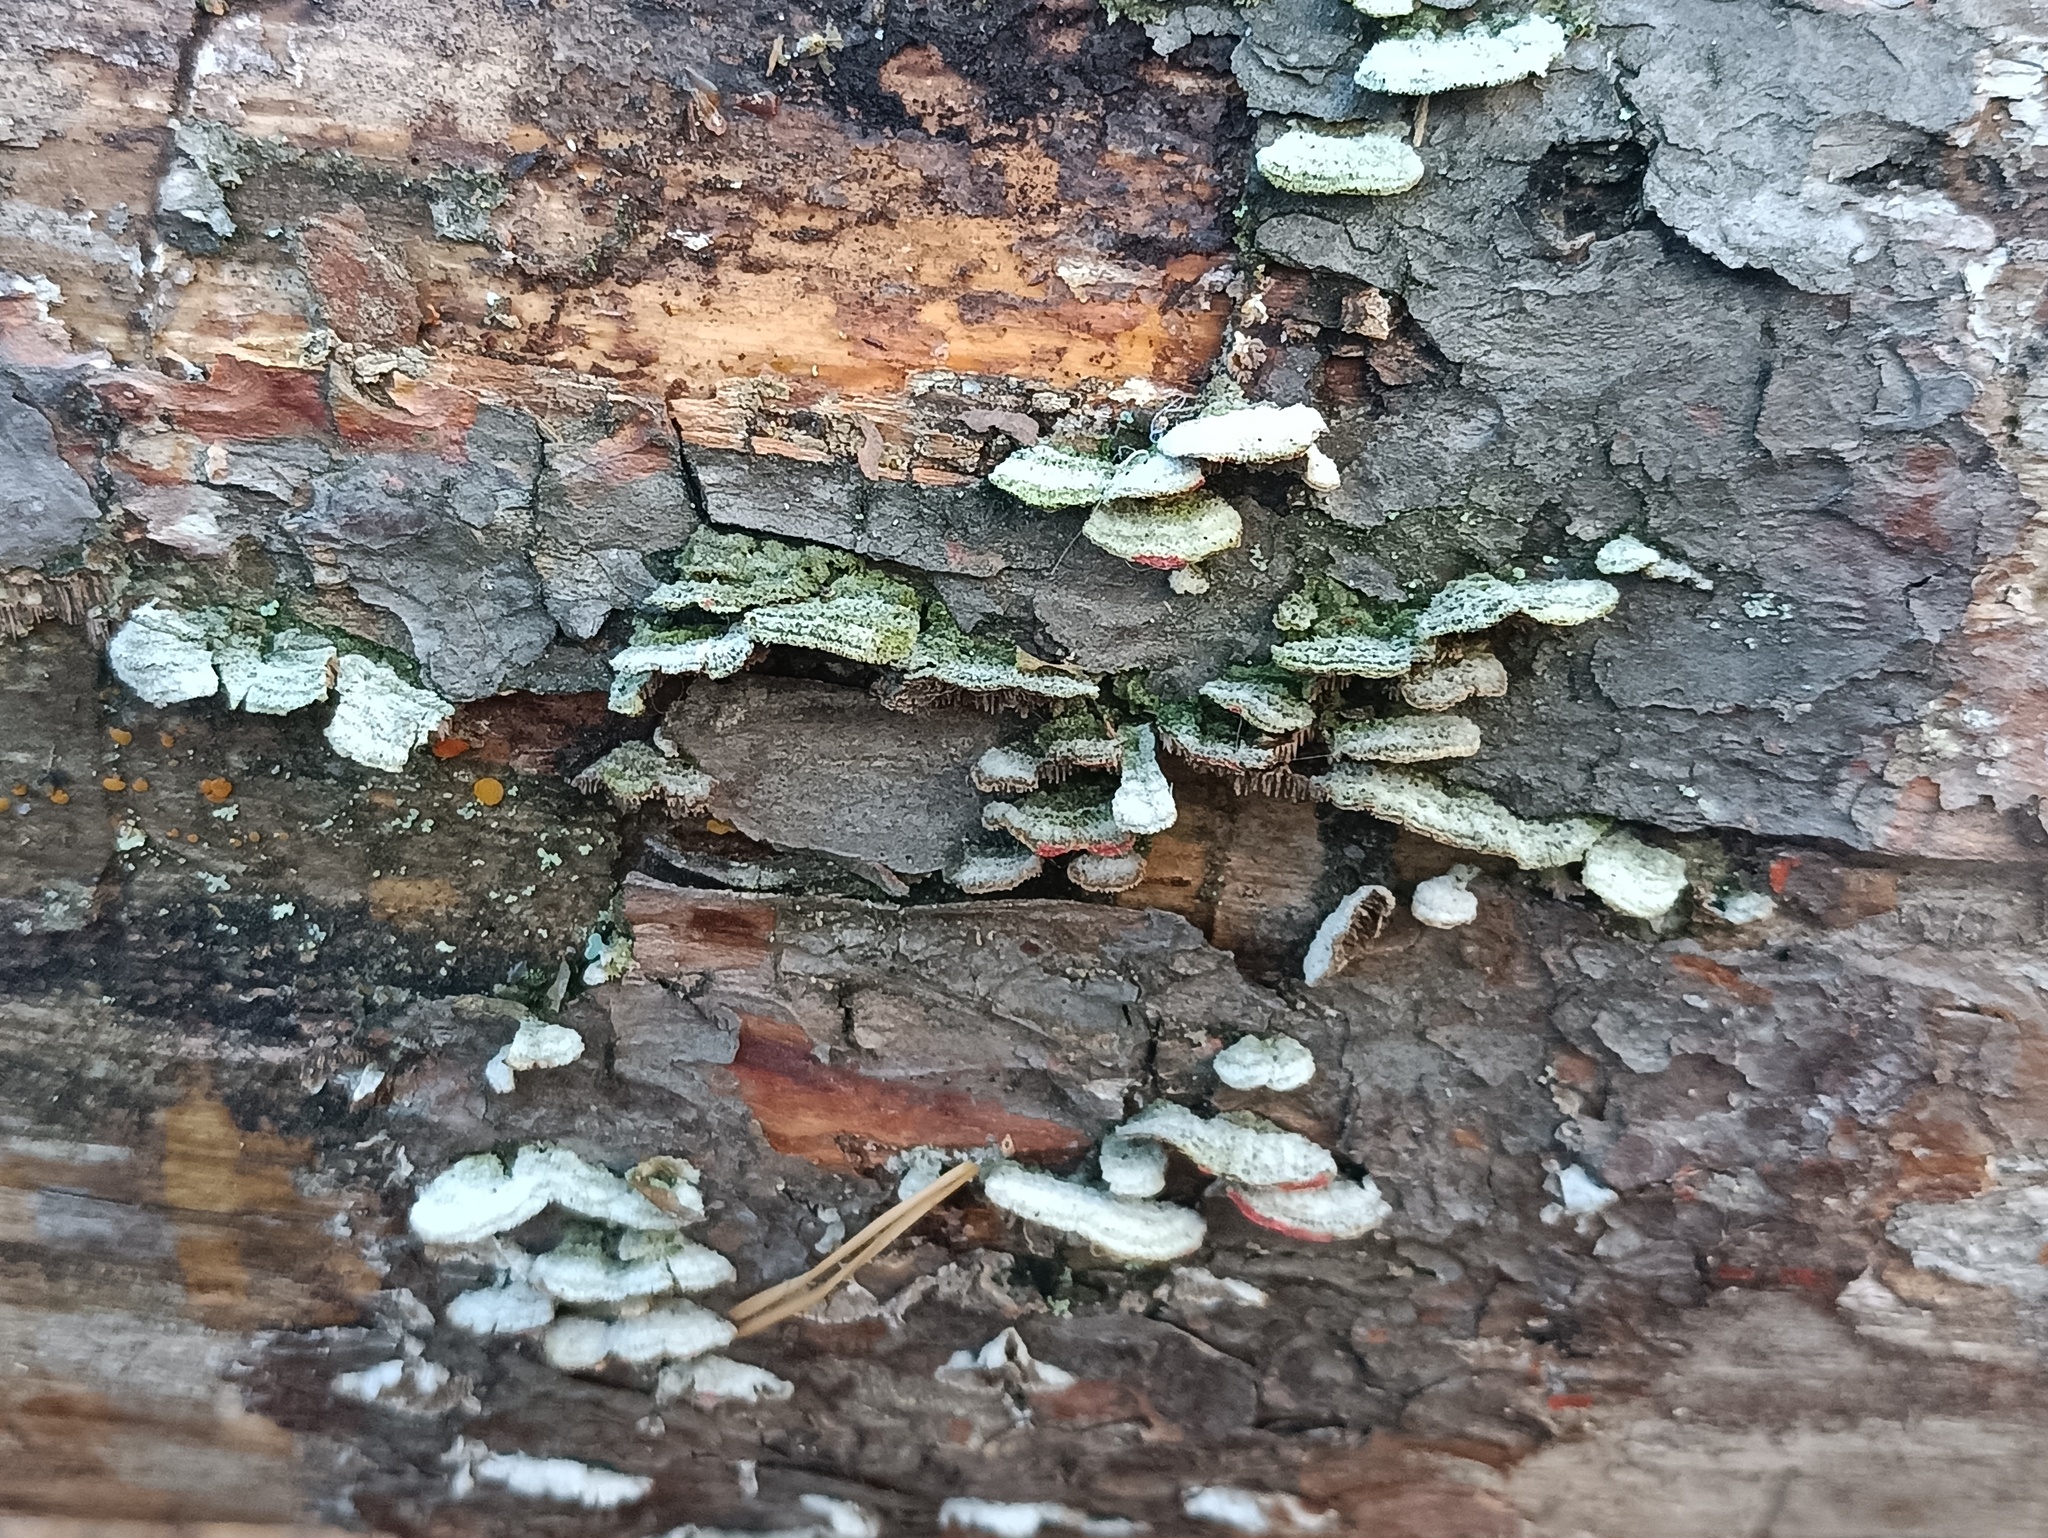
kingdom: Fungi
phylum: Basidiomycota
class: Agaricomycetes
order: Hymenochaetales
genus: Trichaptum
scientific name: Trichaptum fuscoviolaceum
